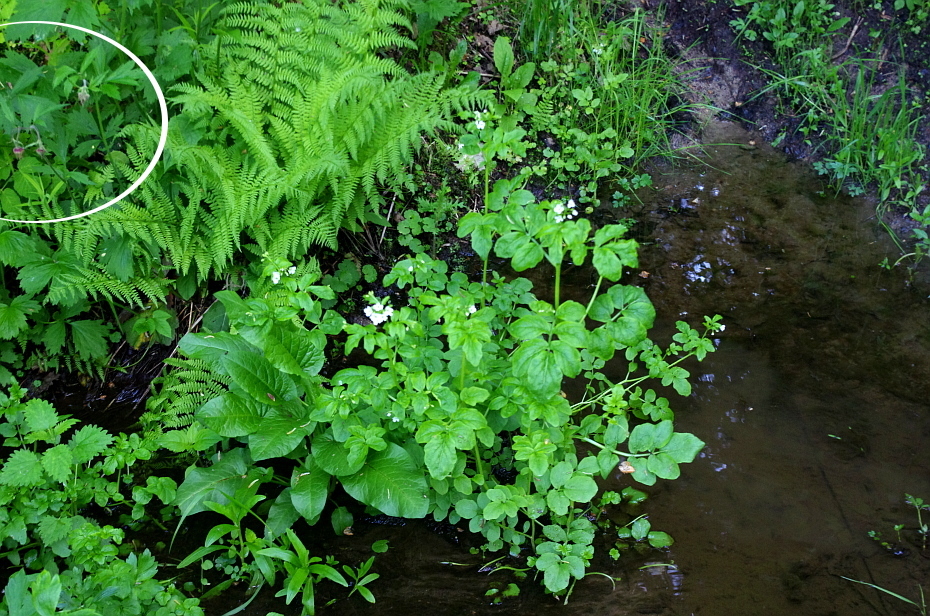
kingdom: Plantae
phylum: Tracheophyta
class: Magnoliopsida
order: Rosales
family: Rosaceae
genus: Geum
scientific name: Geum rivale
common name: Water avens
